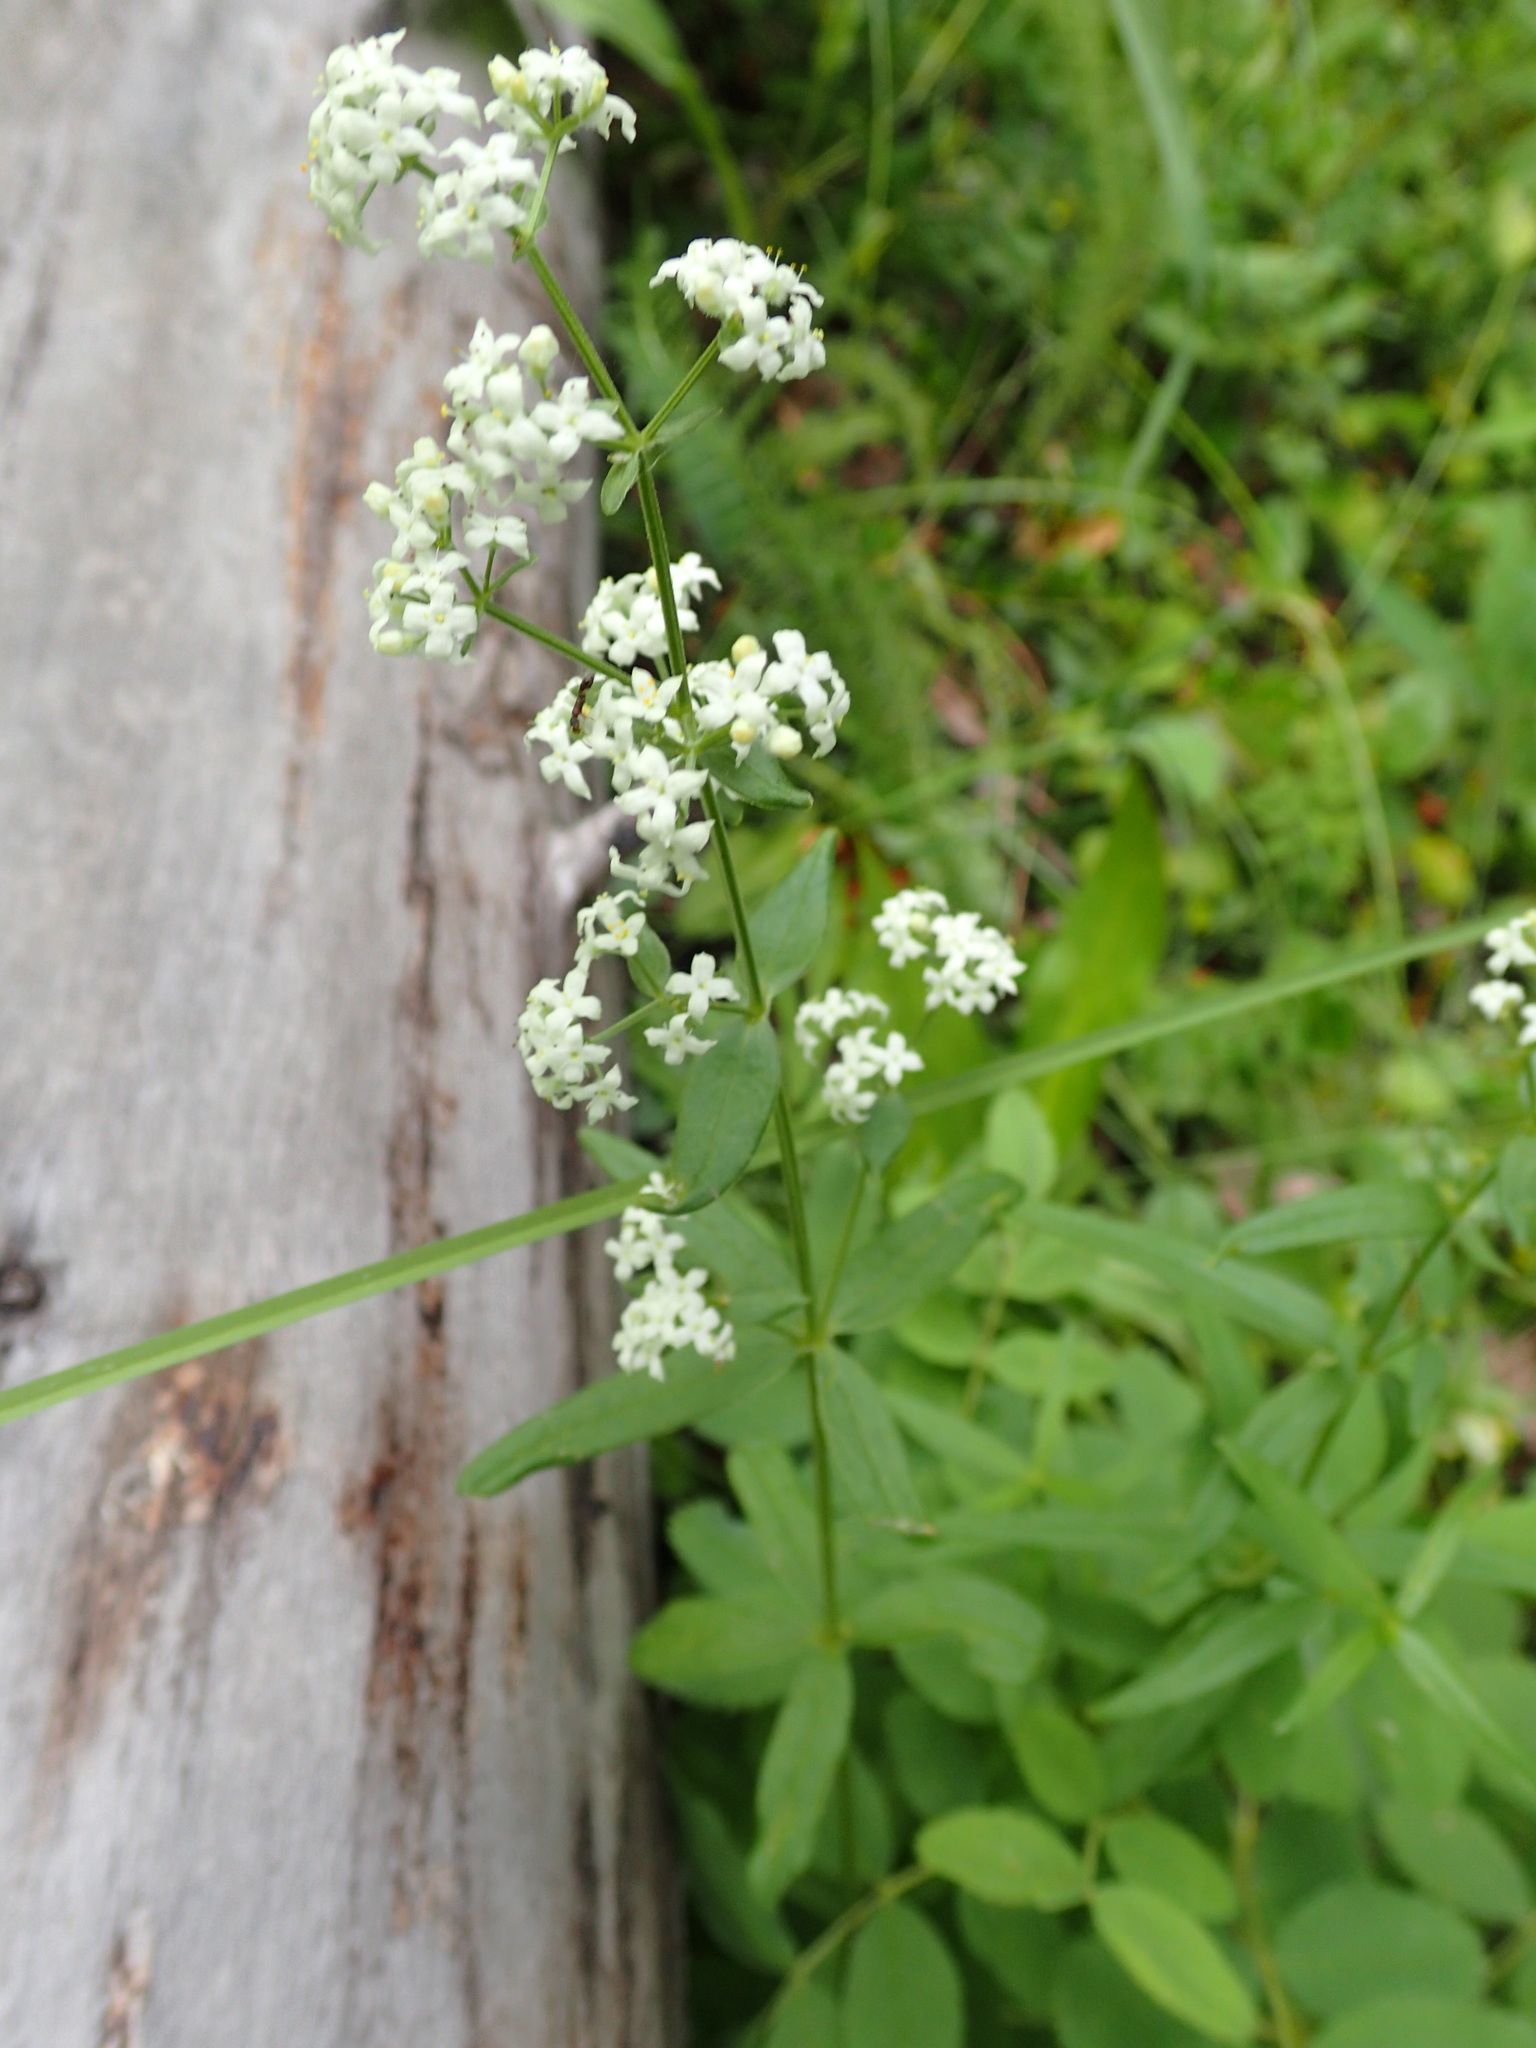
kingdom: Plantae
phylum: Tracheophyta
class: Magnoliopsida
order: Gentianales
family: Rubiaceae
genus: Galium
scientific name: Galium boreale
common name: Northern bedstraw
